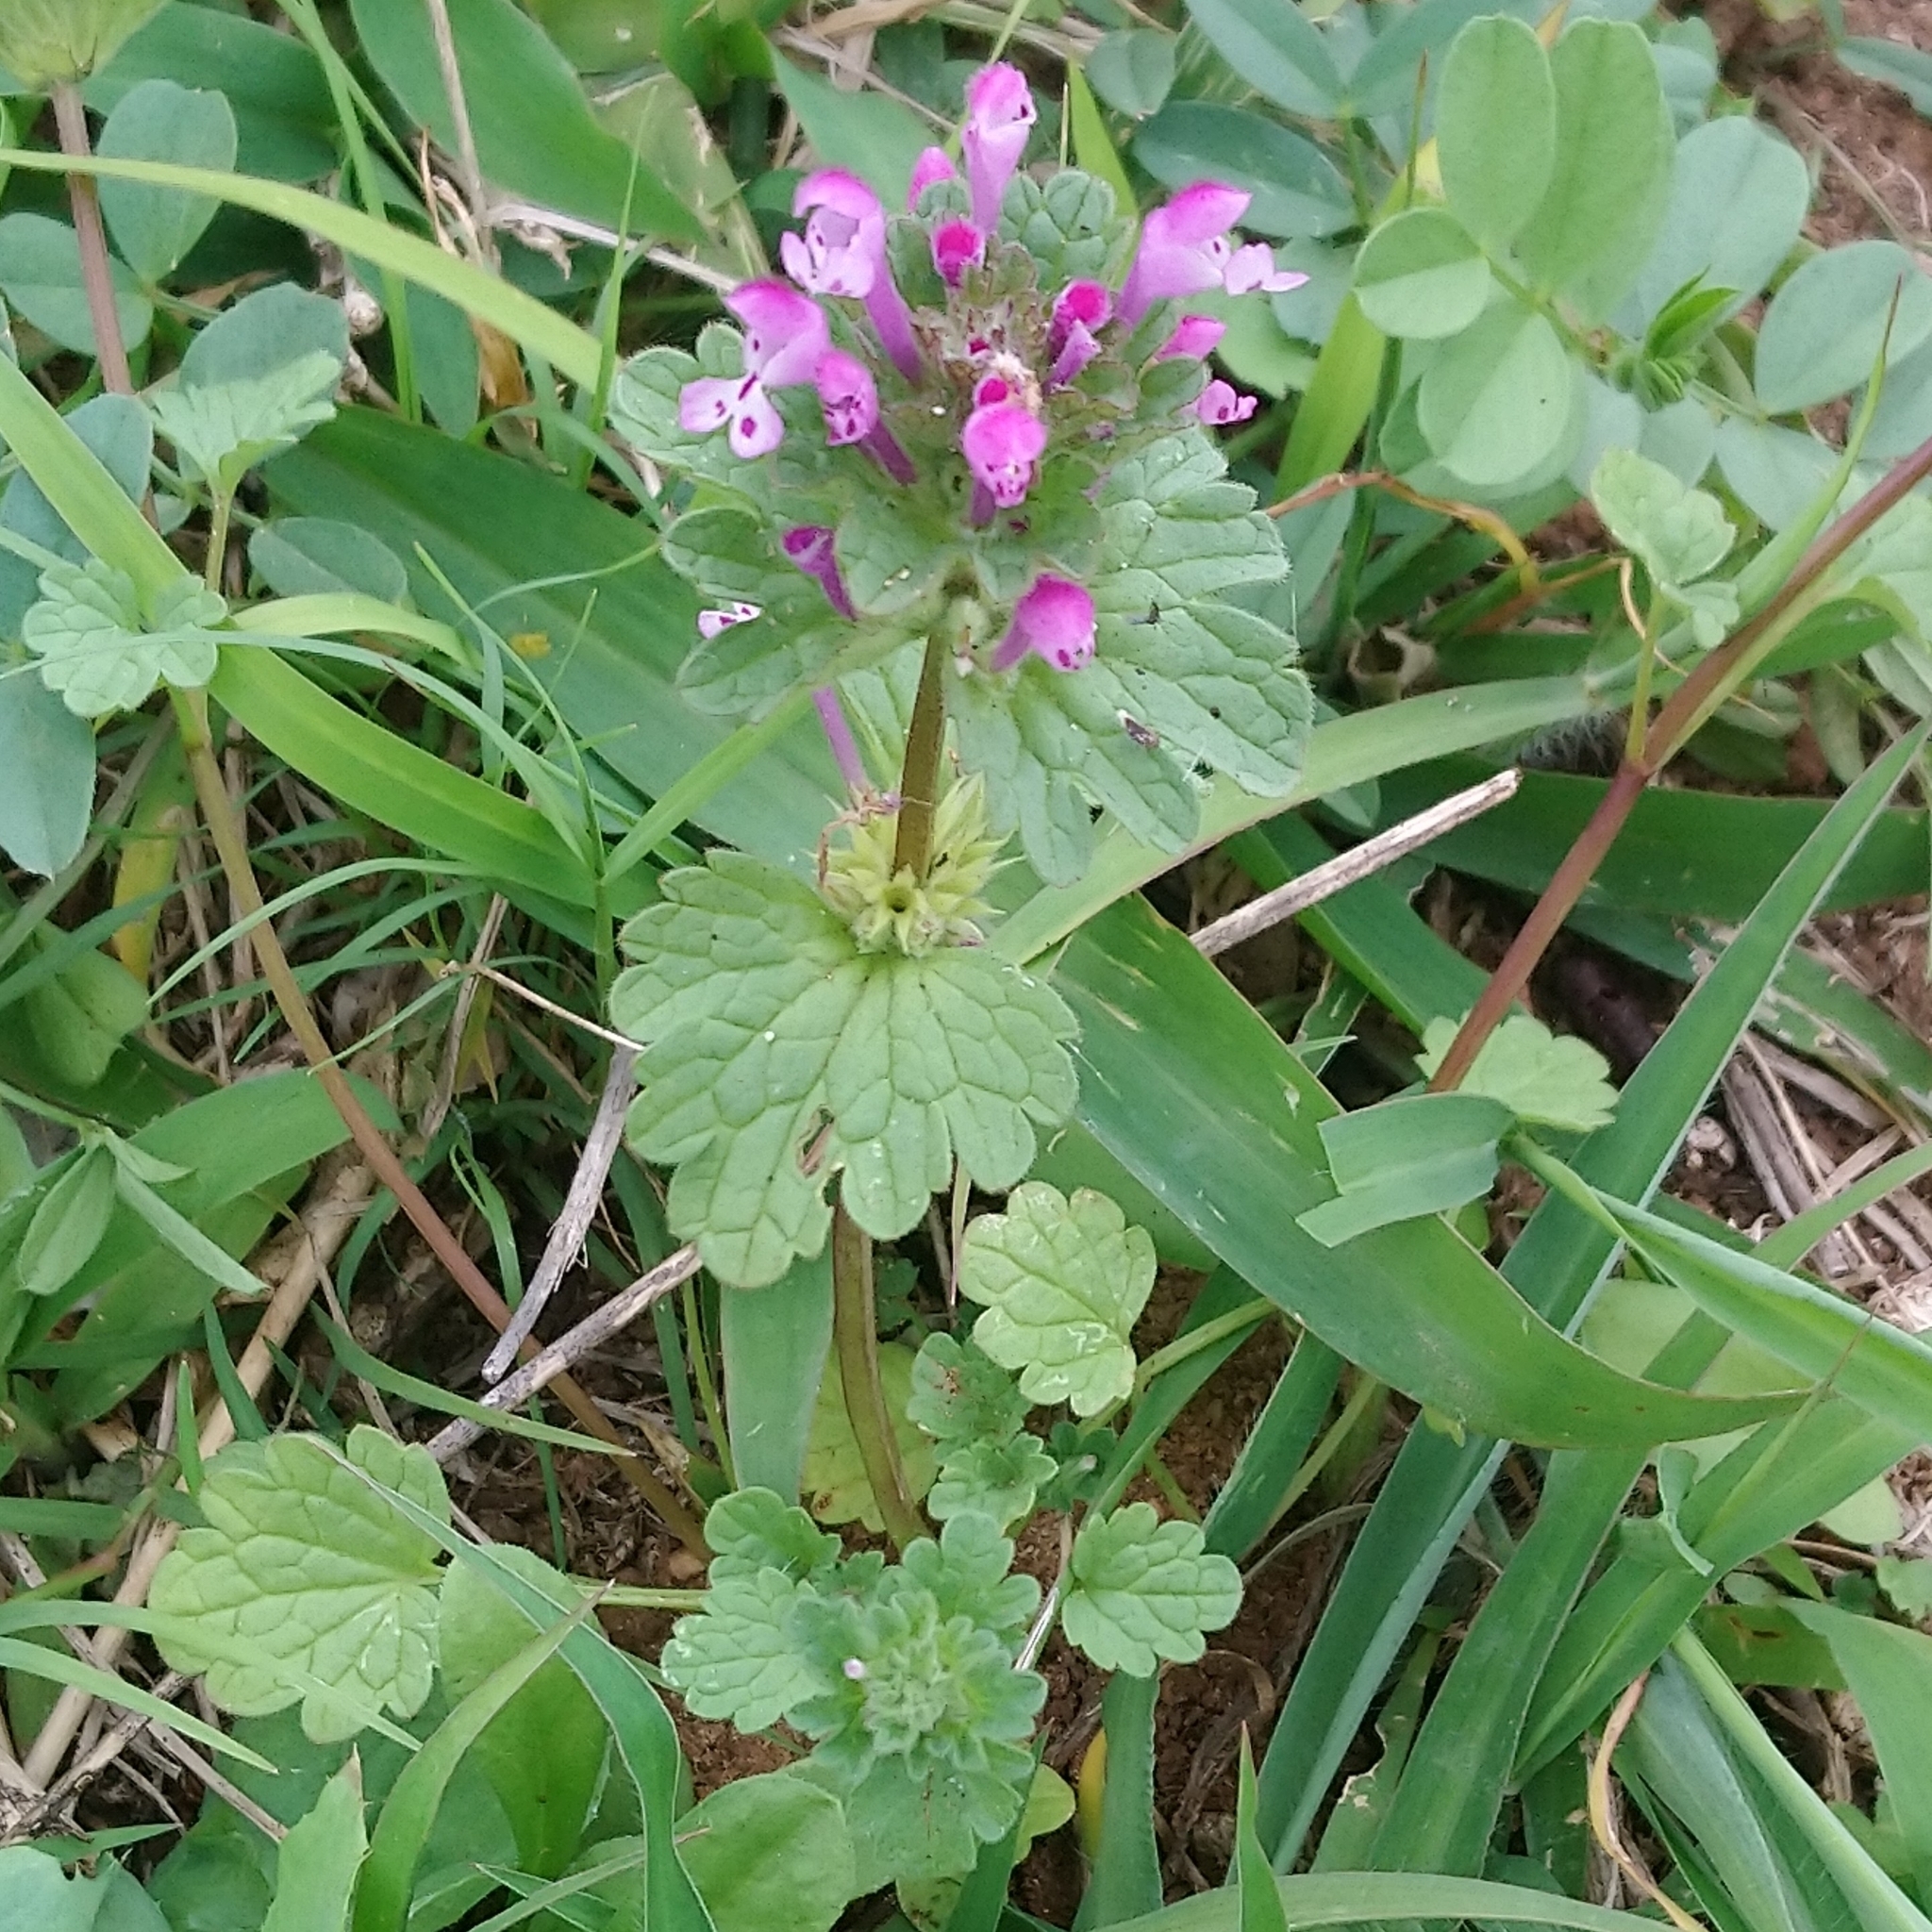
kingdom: Plantae
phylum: Tracheophyta
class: Magnoliopsida
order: Lamiales
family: Lamiaceae
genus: Lamium
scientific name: Lamium amplexicaule
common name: Henbit dead-nettle
